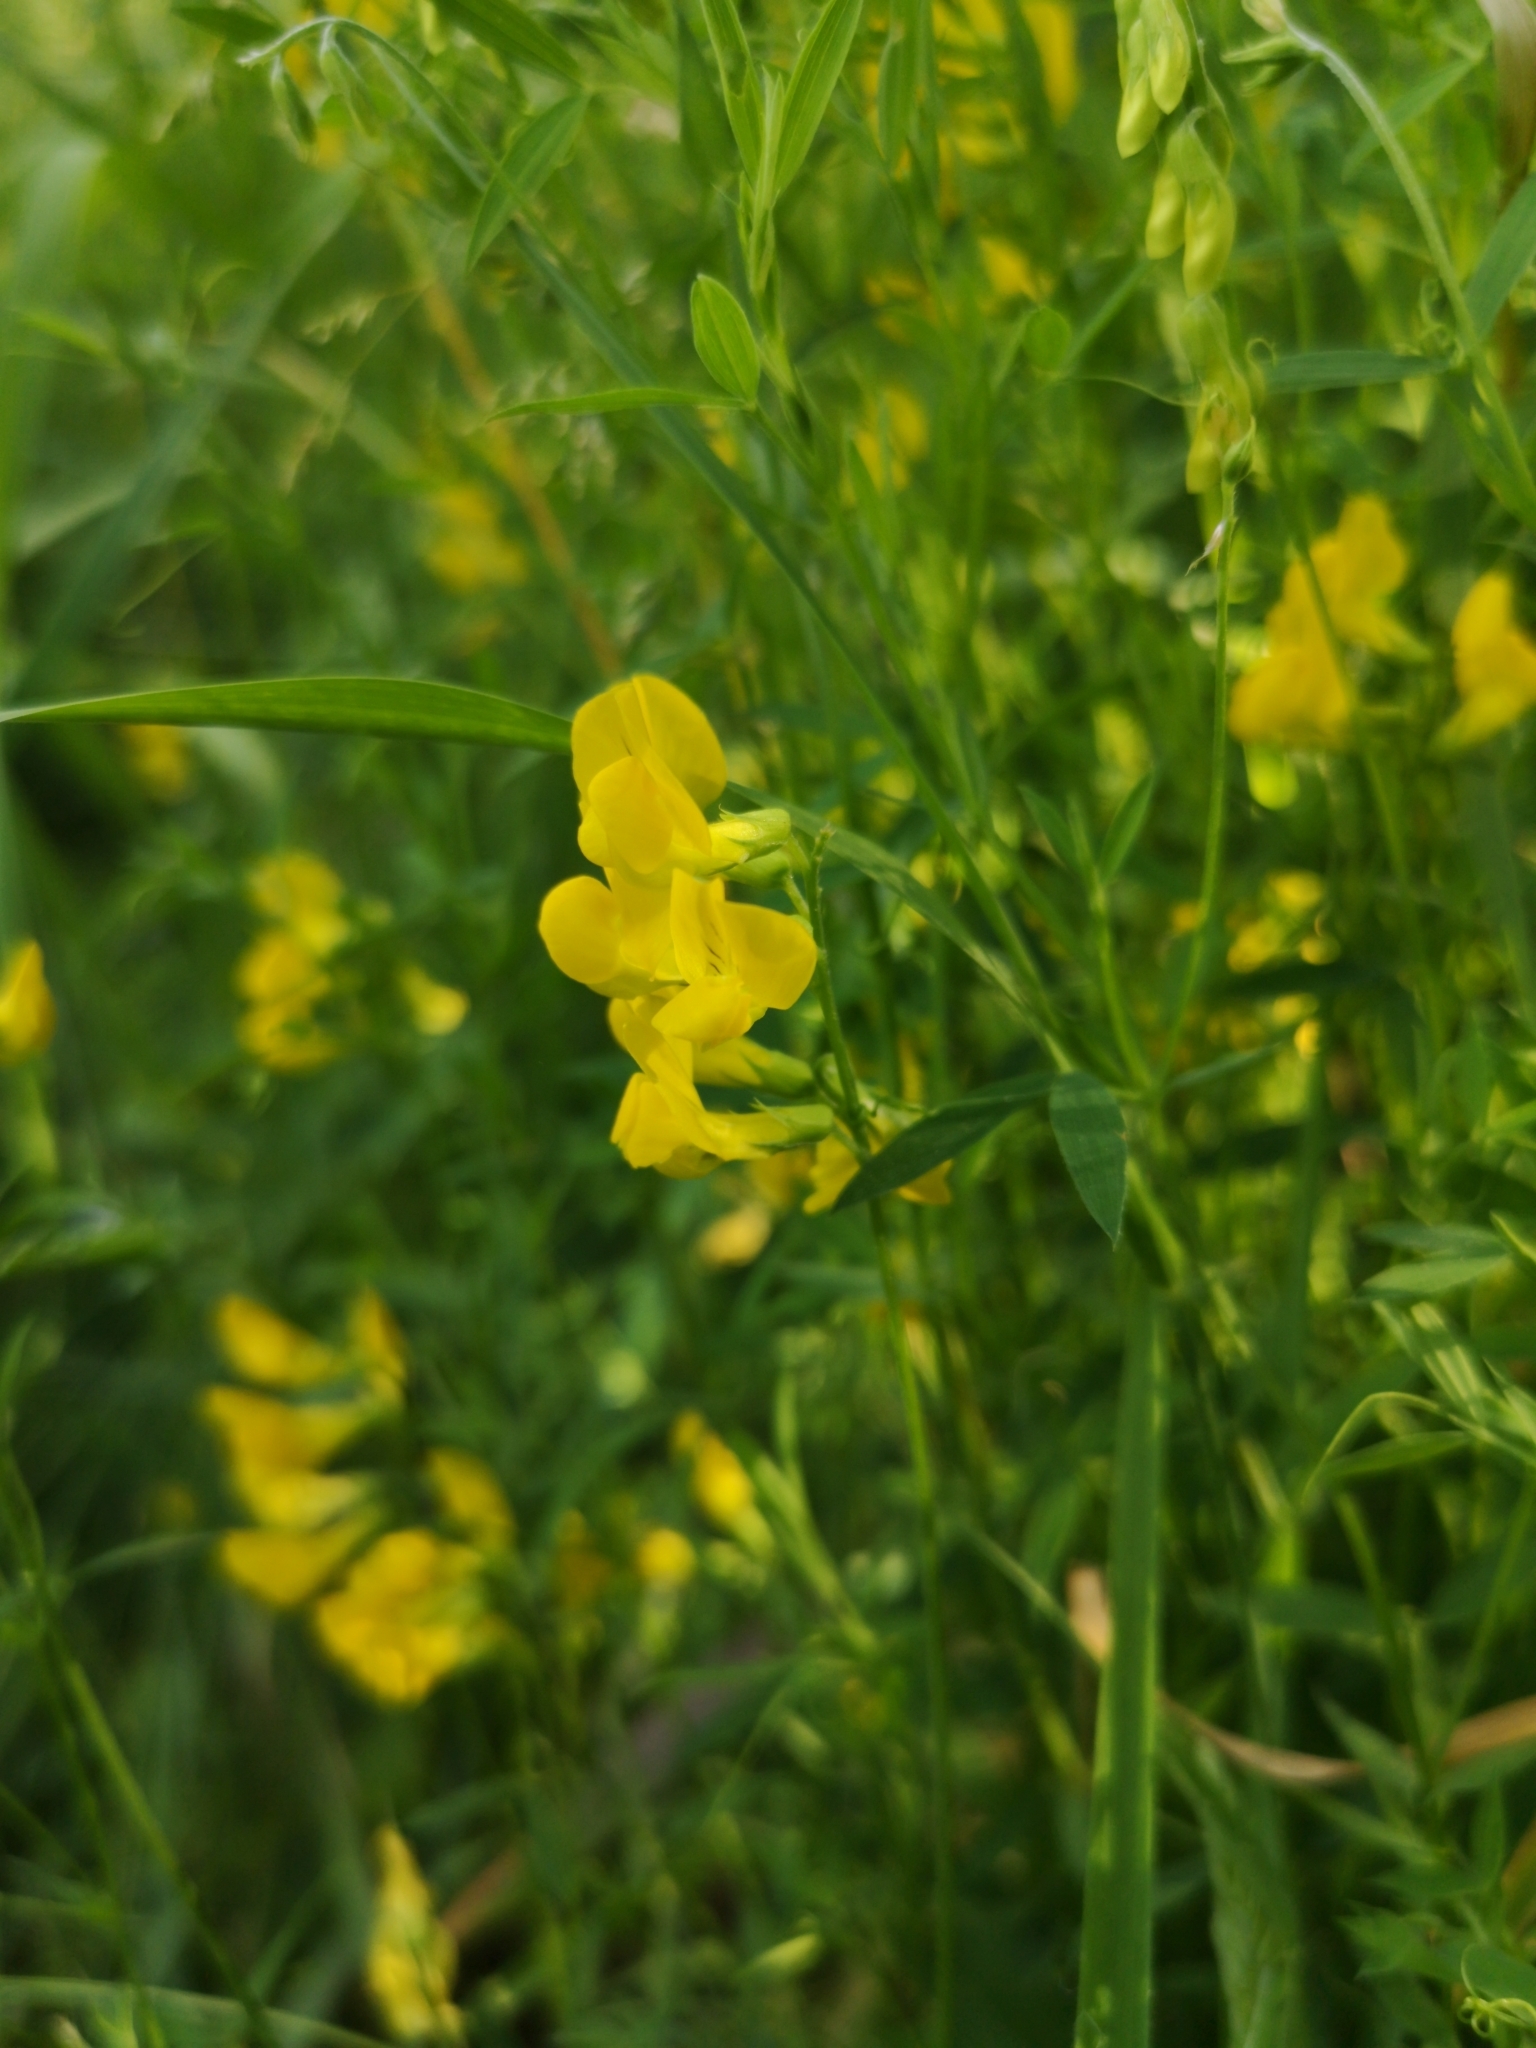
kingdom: Plantae
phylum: Tracheophyta
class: Magnoliopsida
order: Fabales
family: Fabaceae
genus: Lathyrus
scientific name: Lathyrus pratensis
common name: Meadow vetchling
